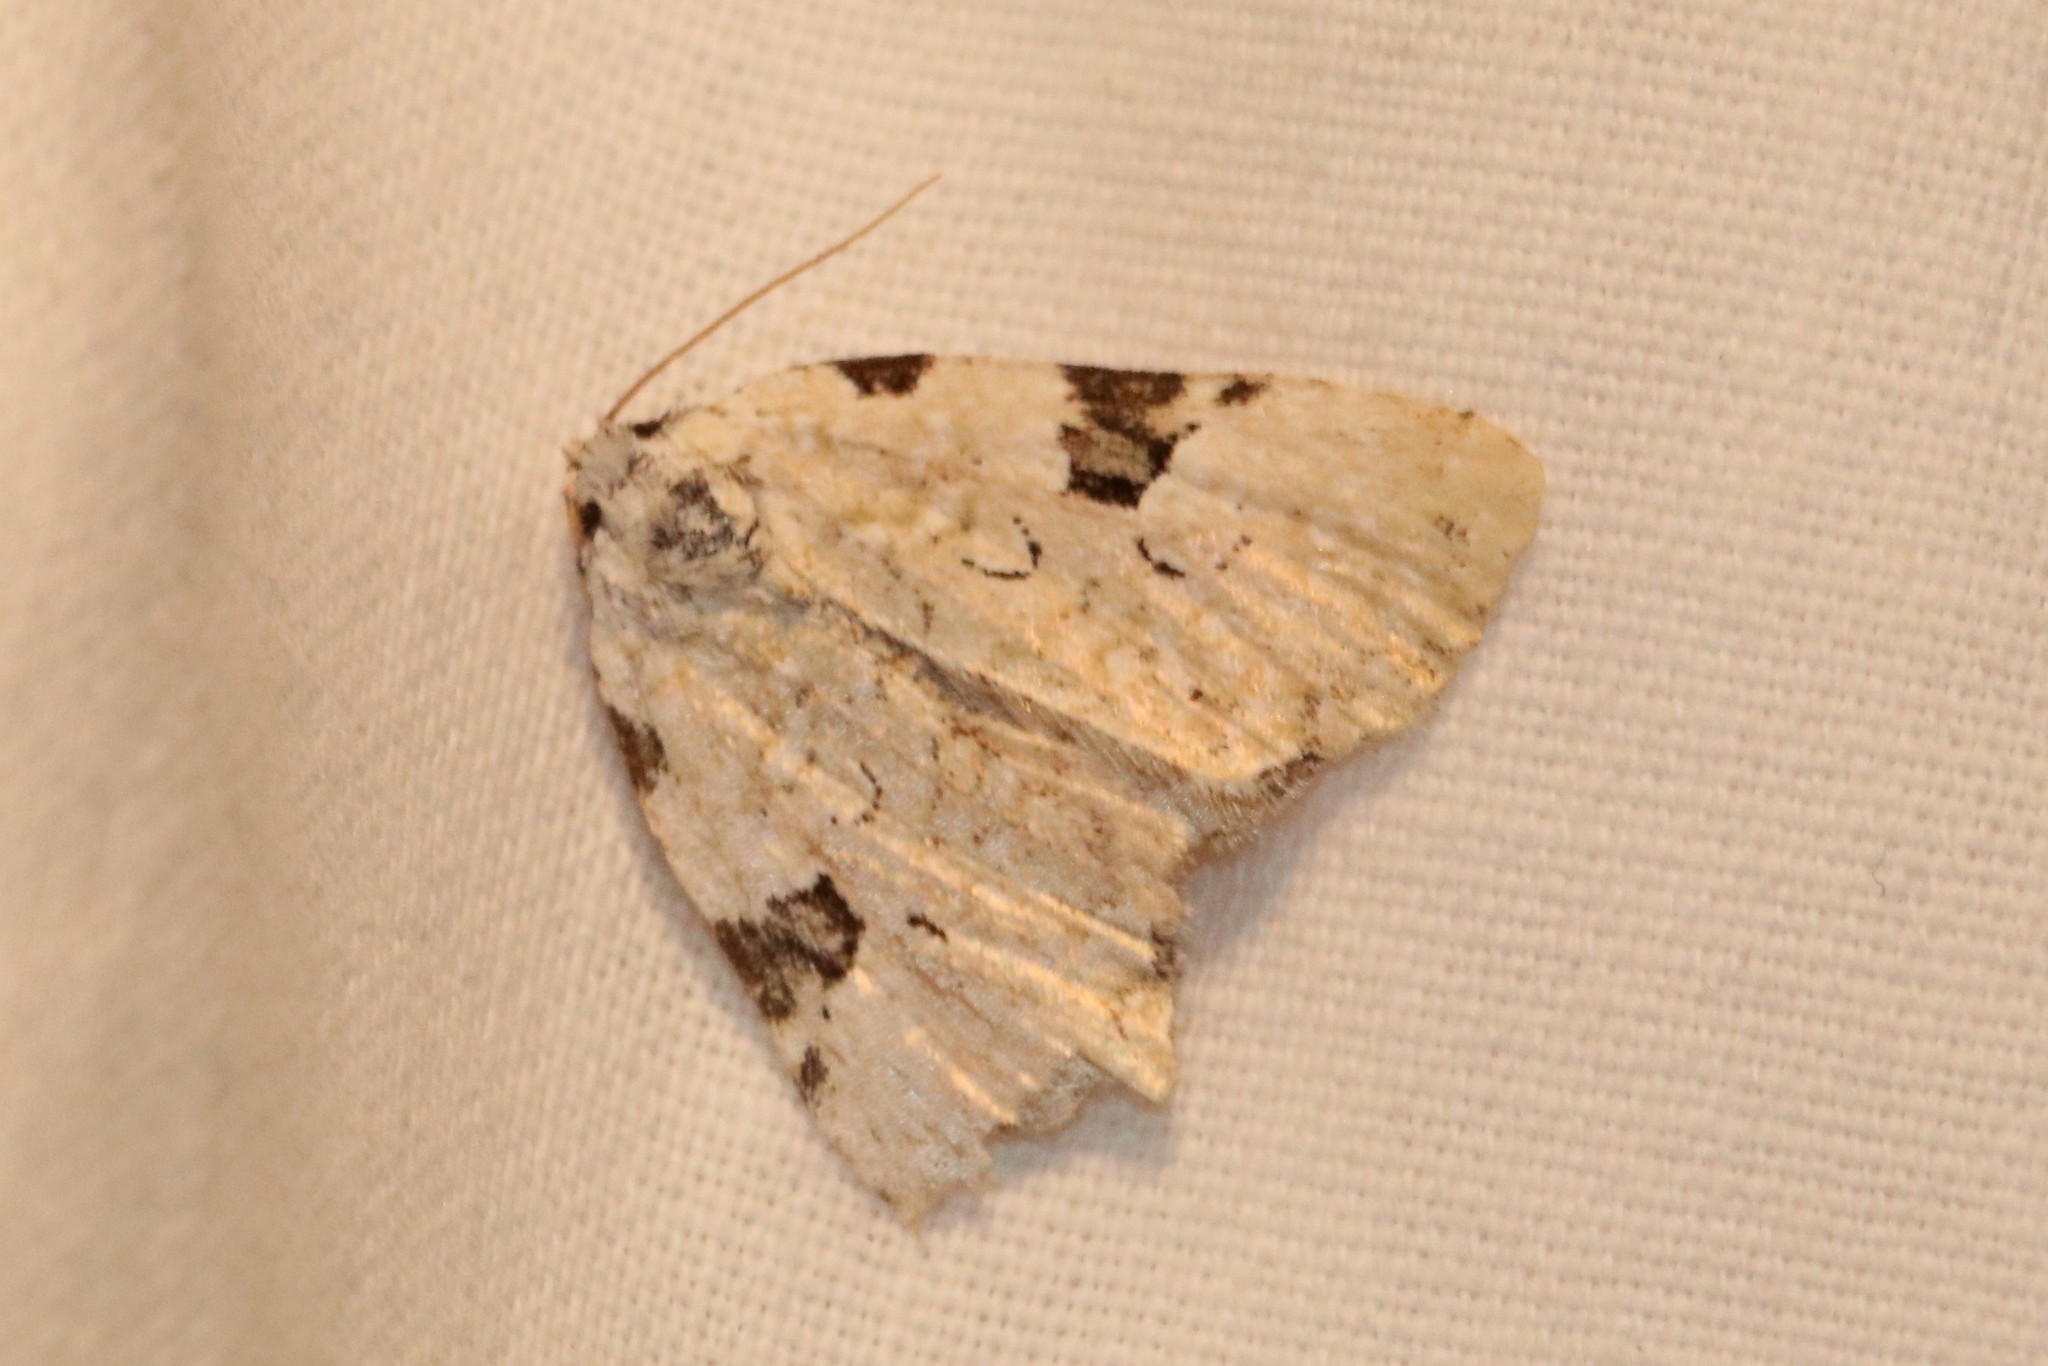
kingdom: Animalia
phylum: Arthropoda
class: Insecta
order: Lepidoptera
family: Noctuidae
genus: Leuconycta
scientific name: Leuconycta diphteroides
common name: Green leuconycta moth
